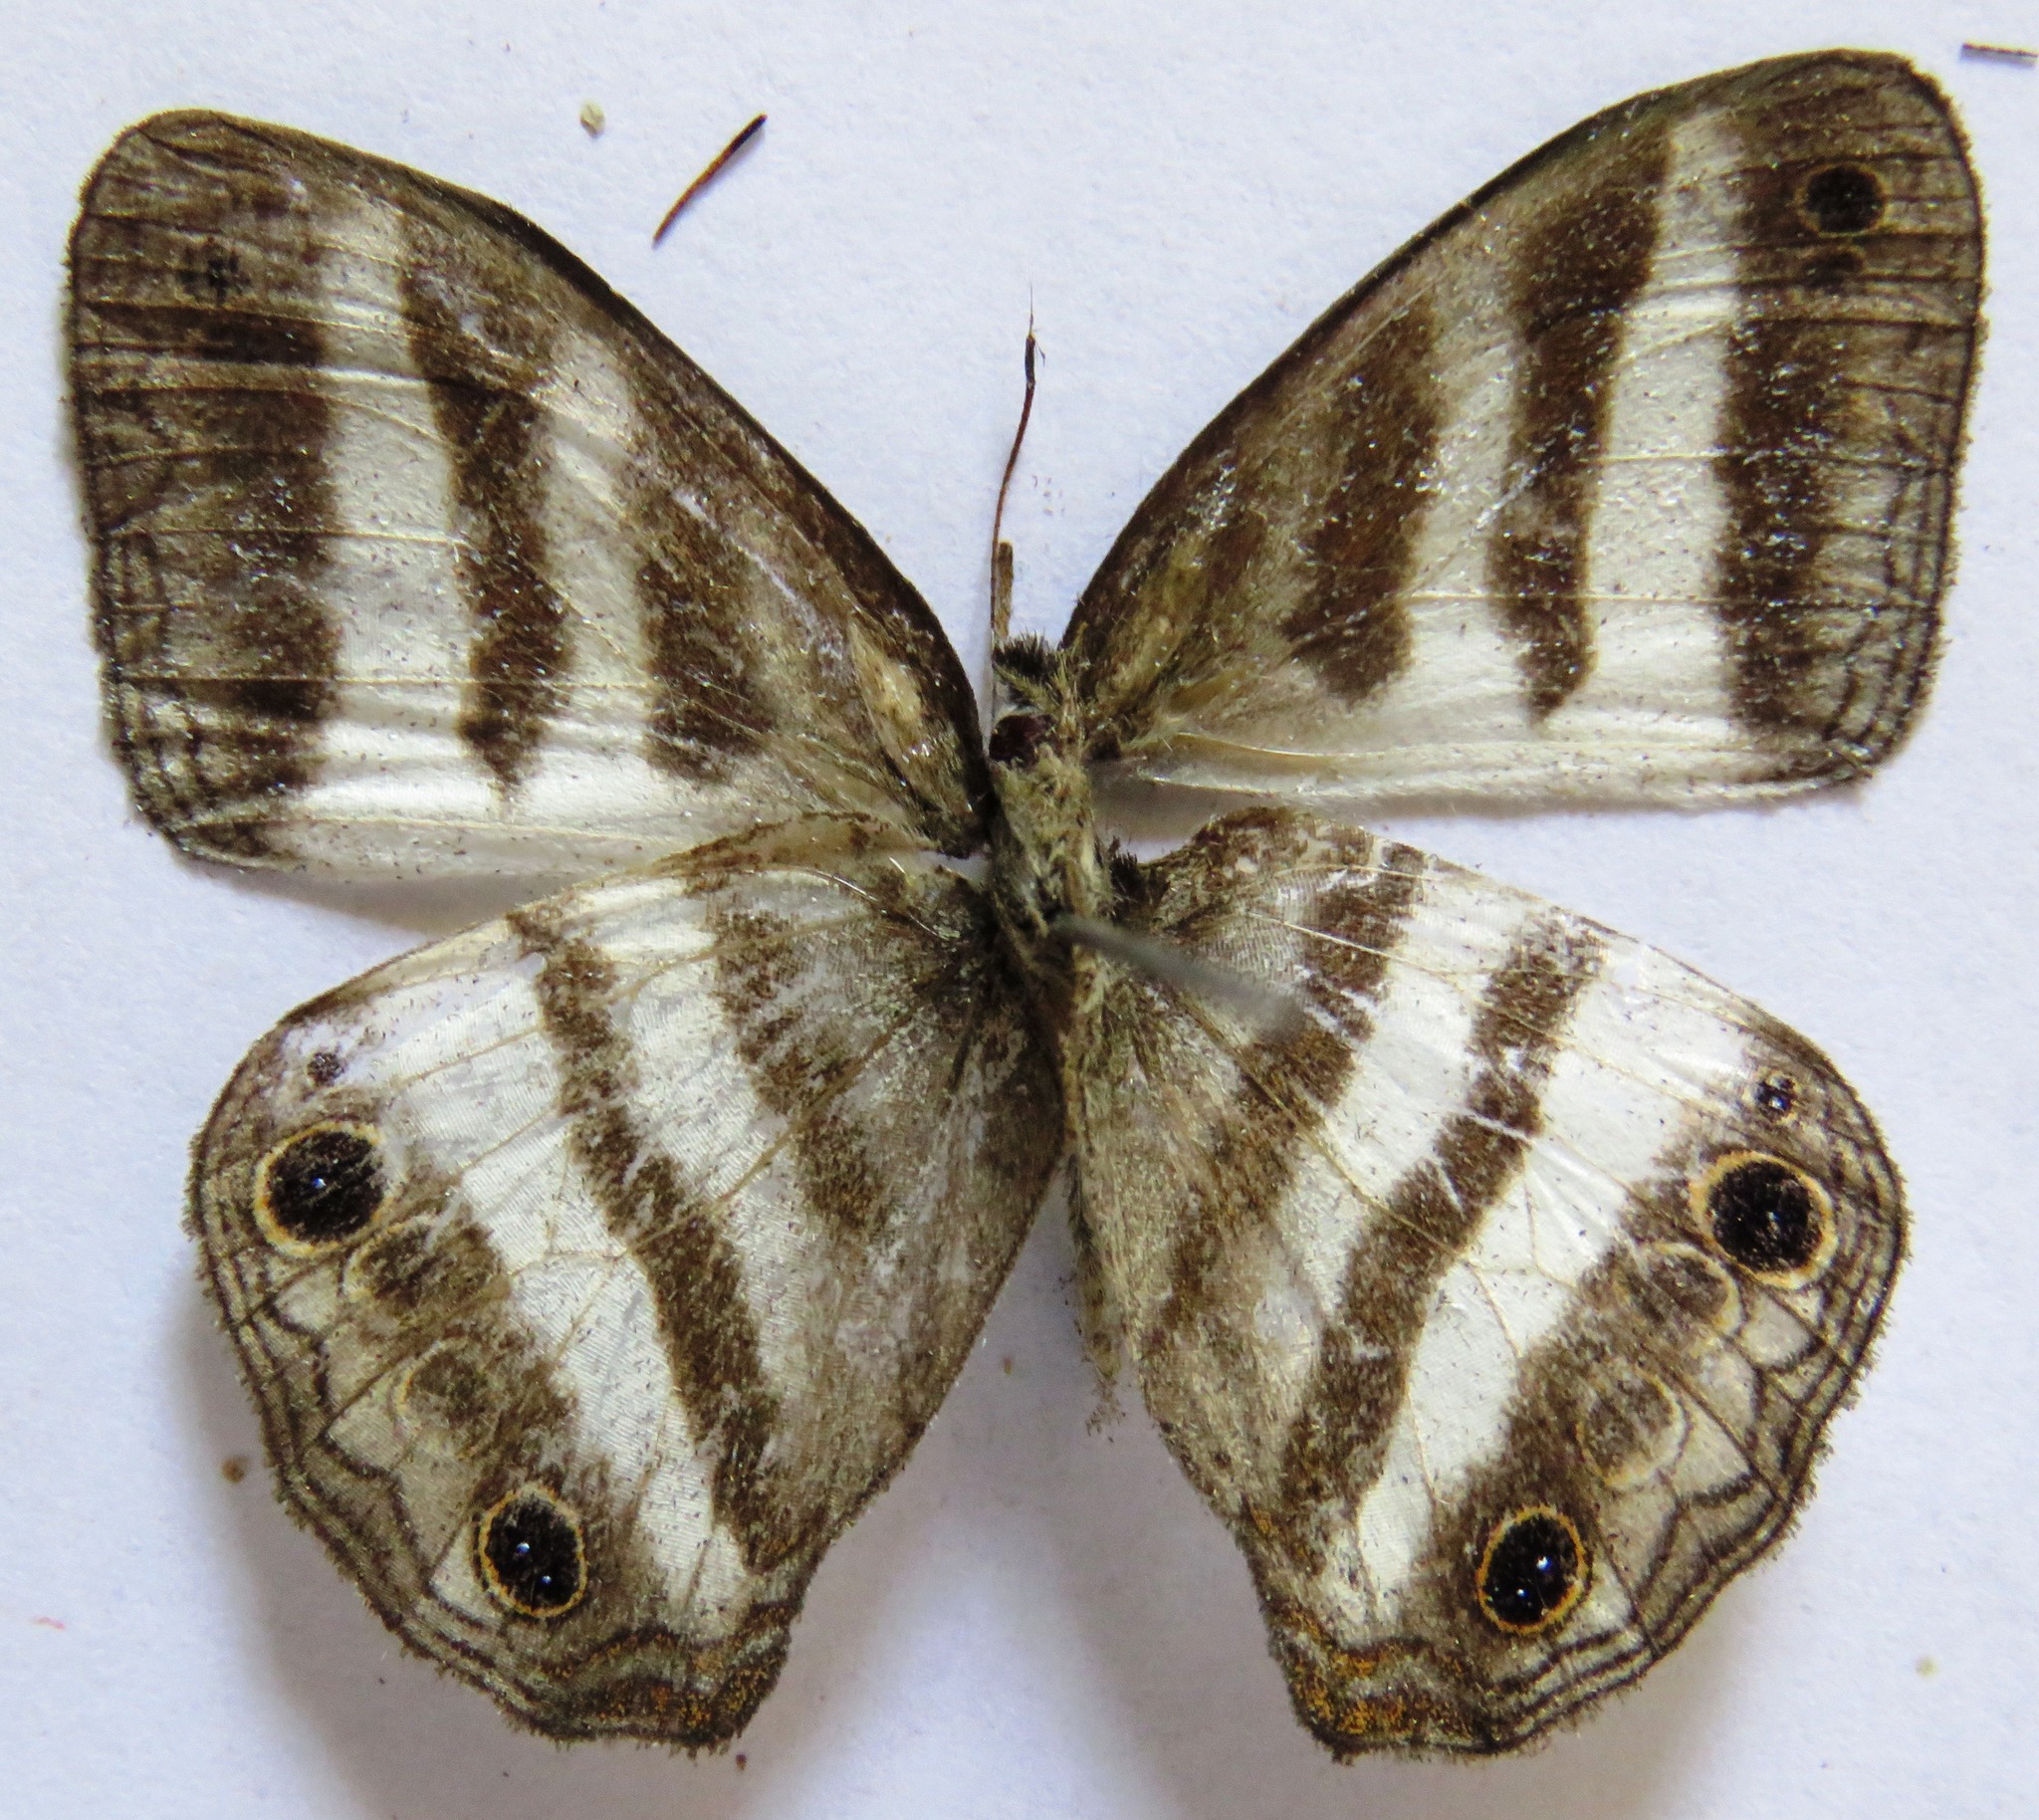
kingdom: Animalia
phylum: Arthropoda
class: Insecta
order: Lepidoptera
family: Nymphalidae
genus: Pareuptychia
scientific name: Pareuptychia hesione
